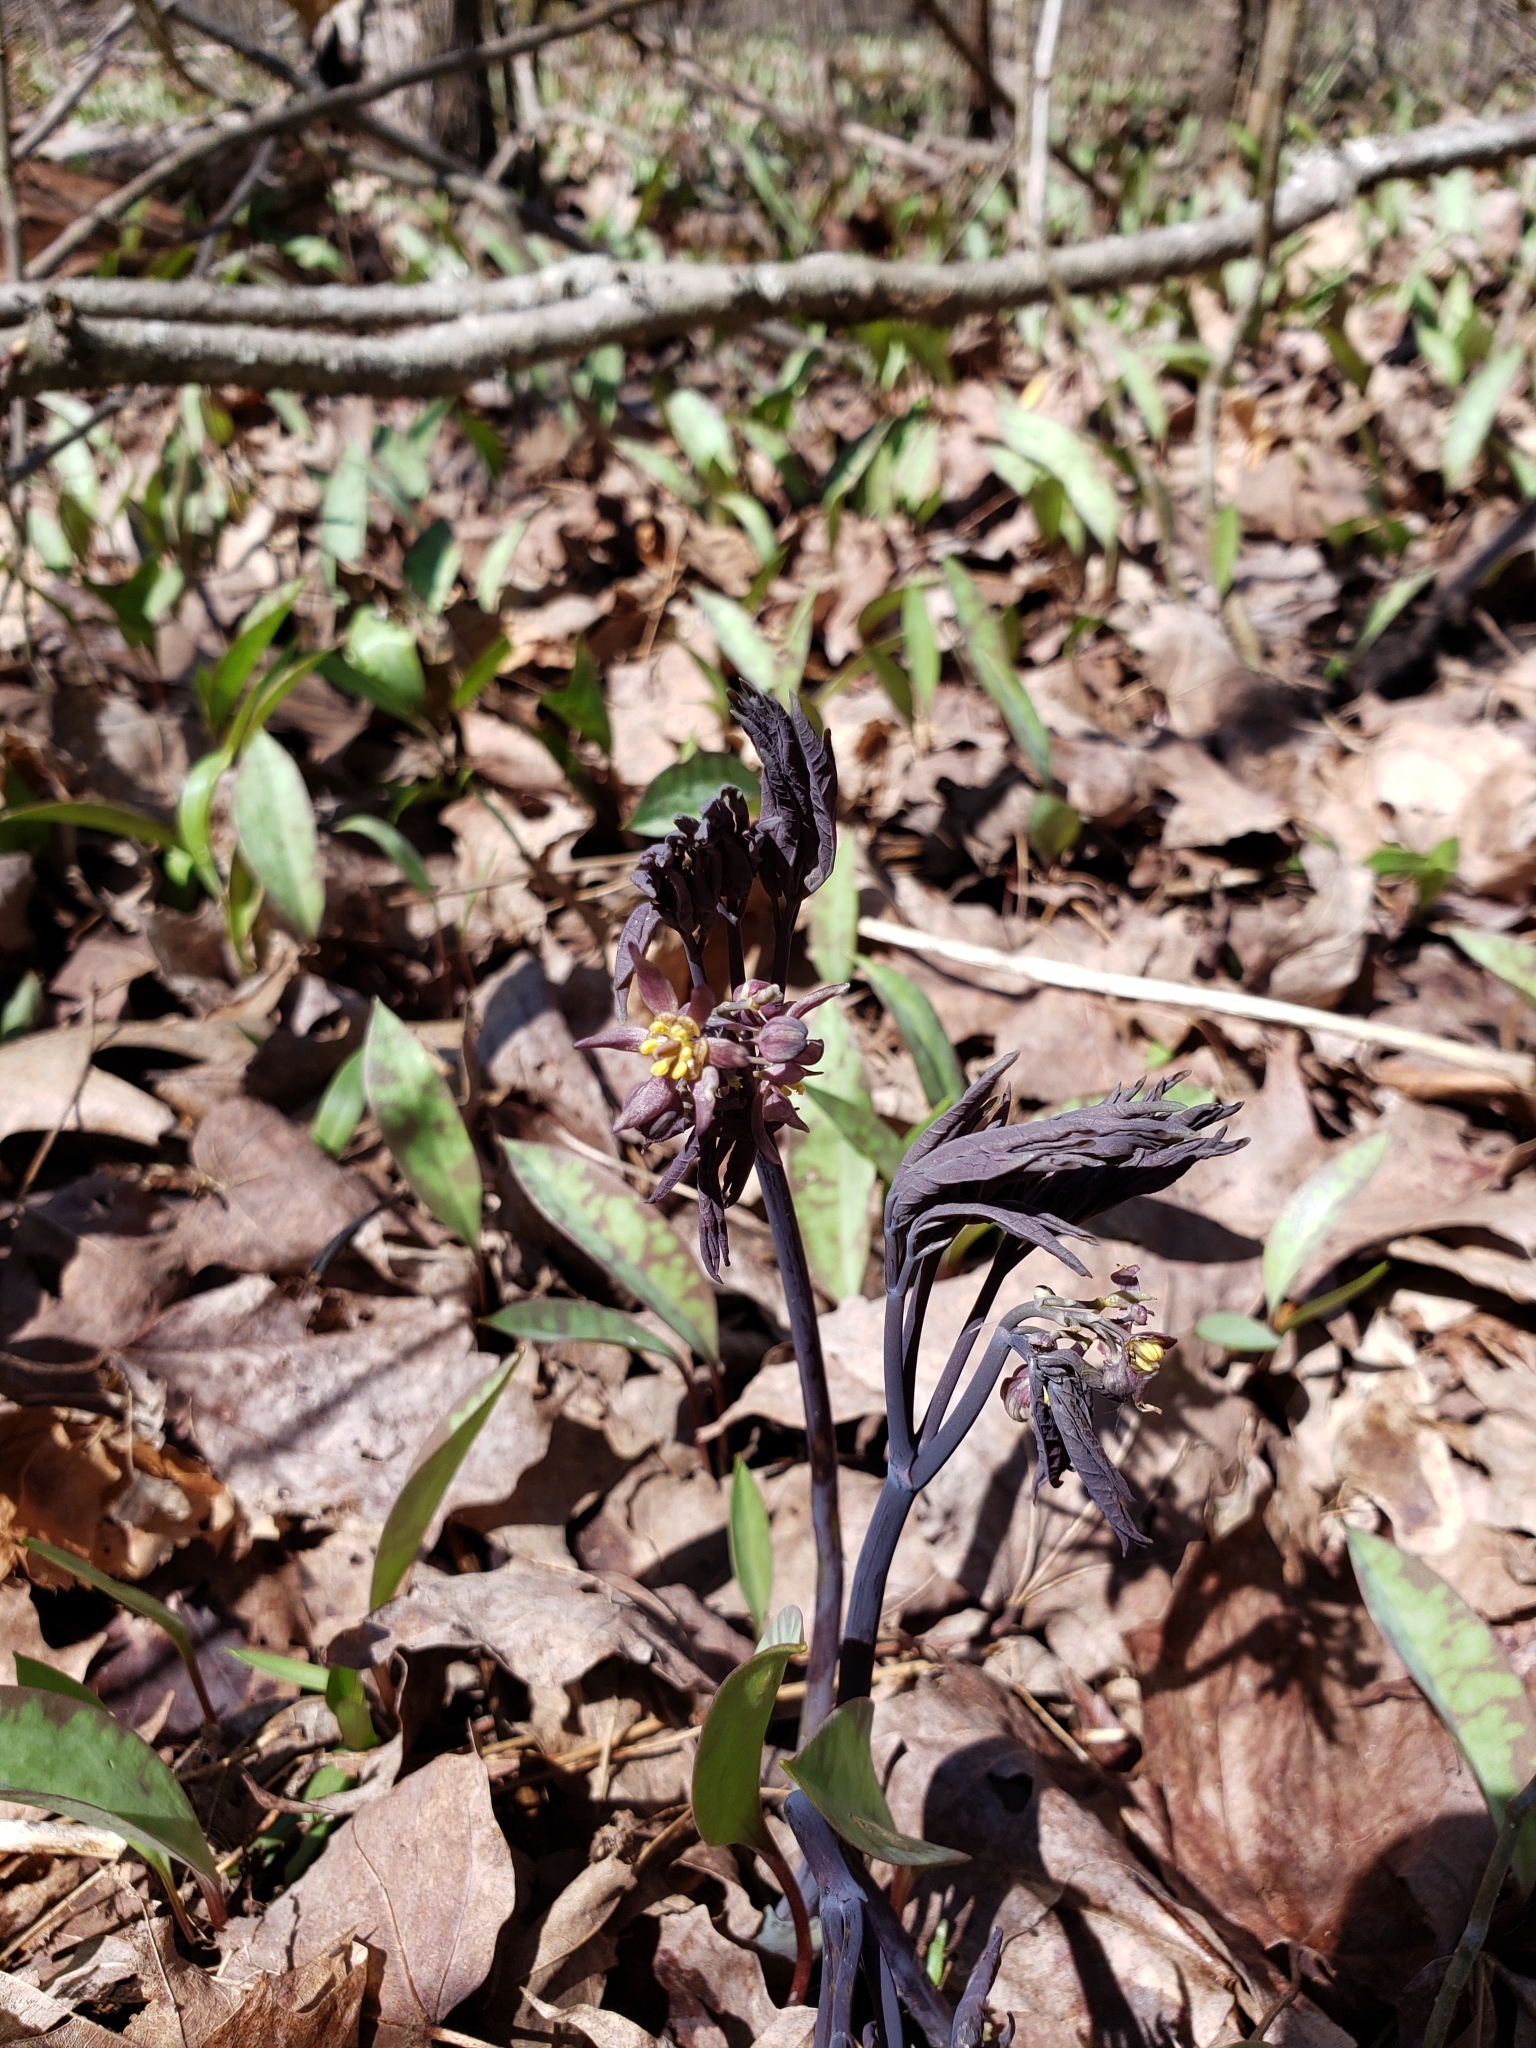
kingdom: Plantae
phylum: Tracheophyta
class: Magnoliopsida
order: Ranunculales
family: Berberidaceae
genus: Caulophyllum
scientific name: Caulophyllum giganteum
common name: Blue cohosh
